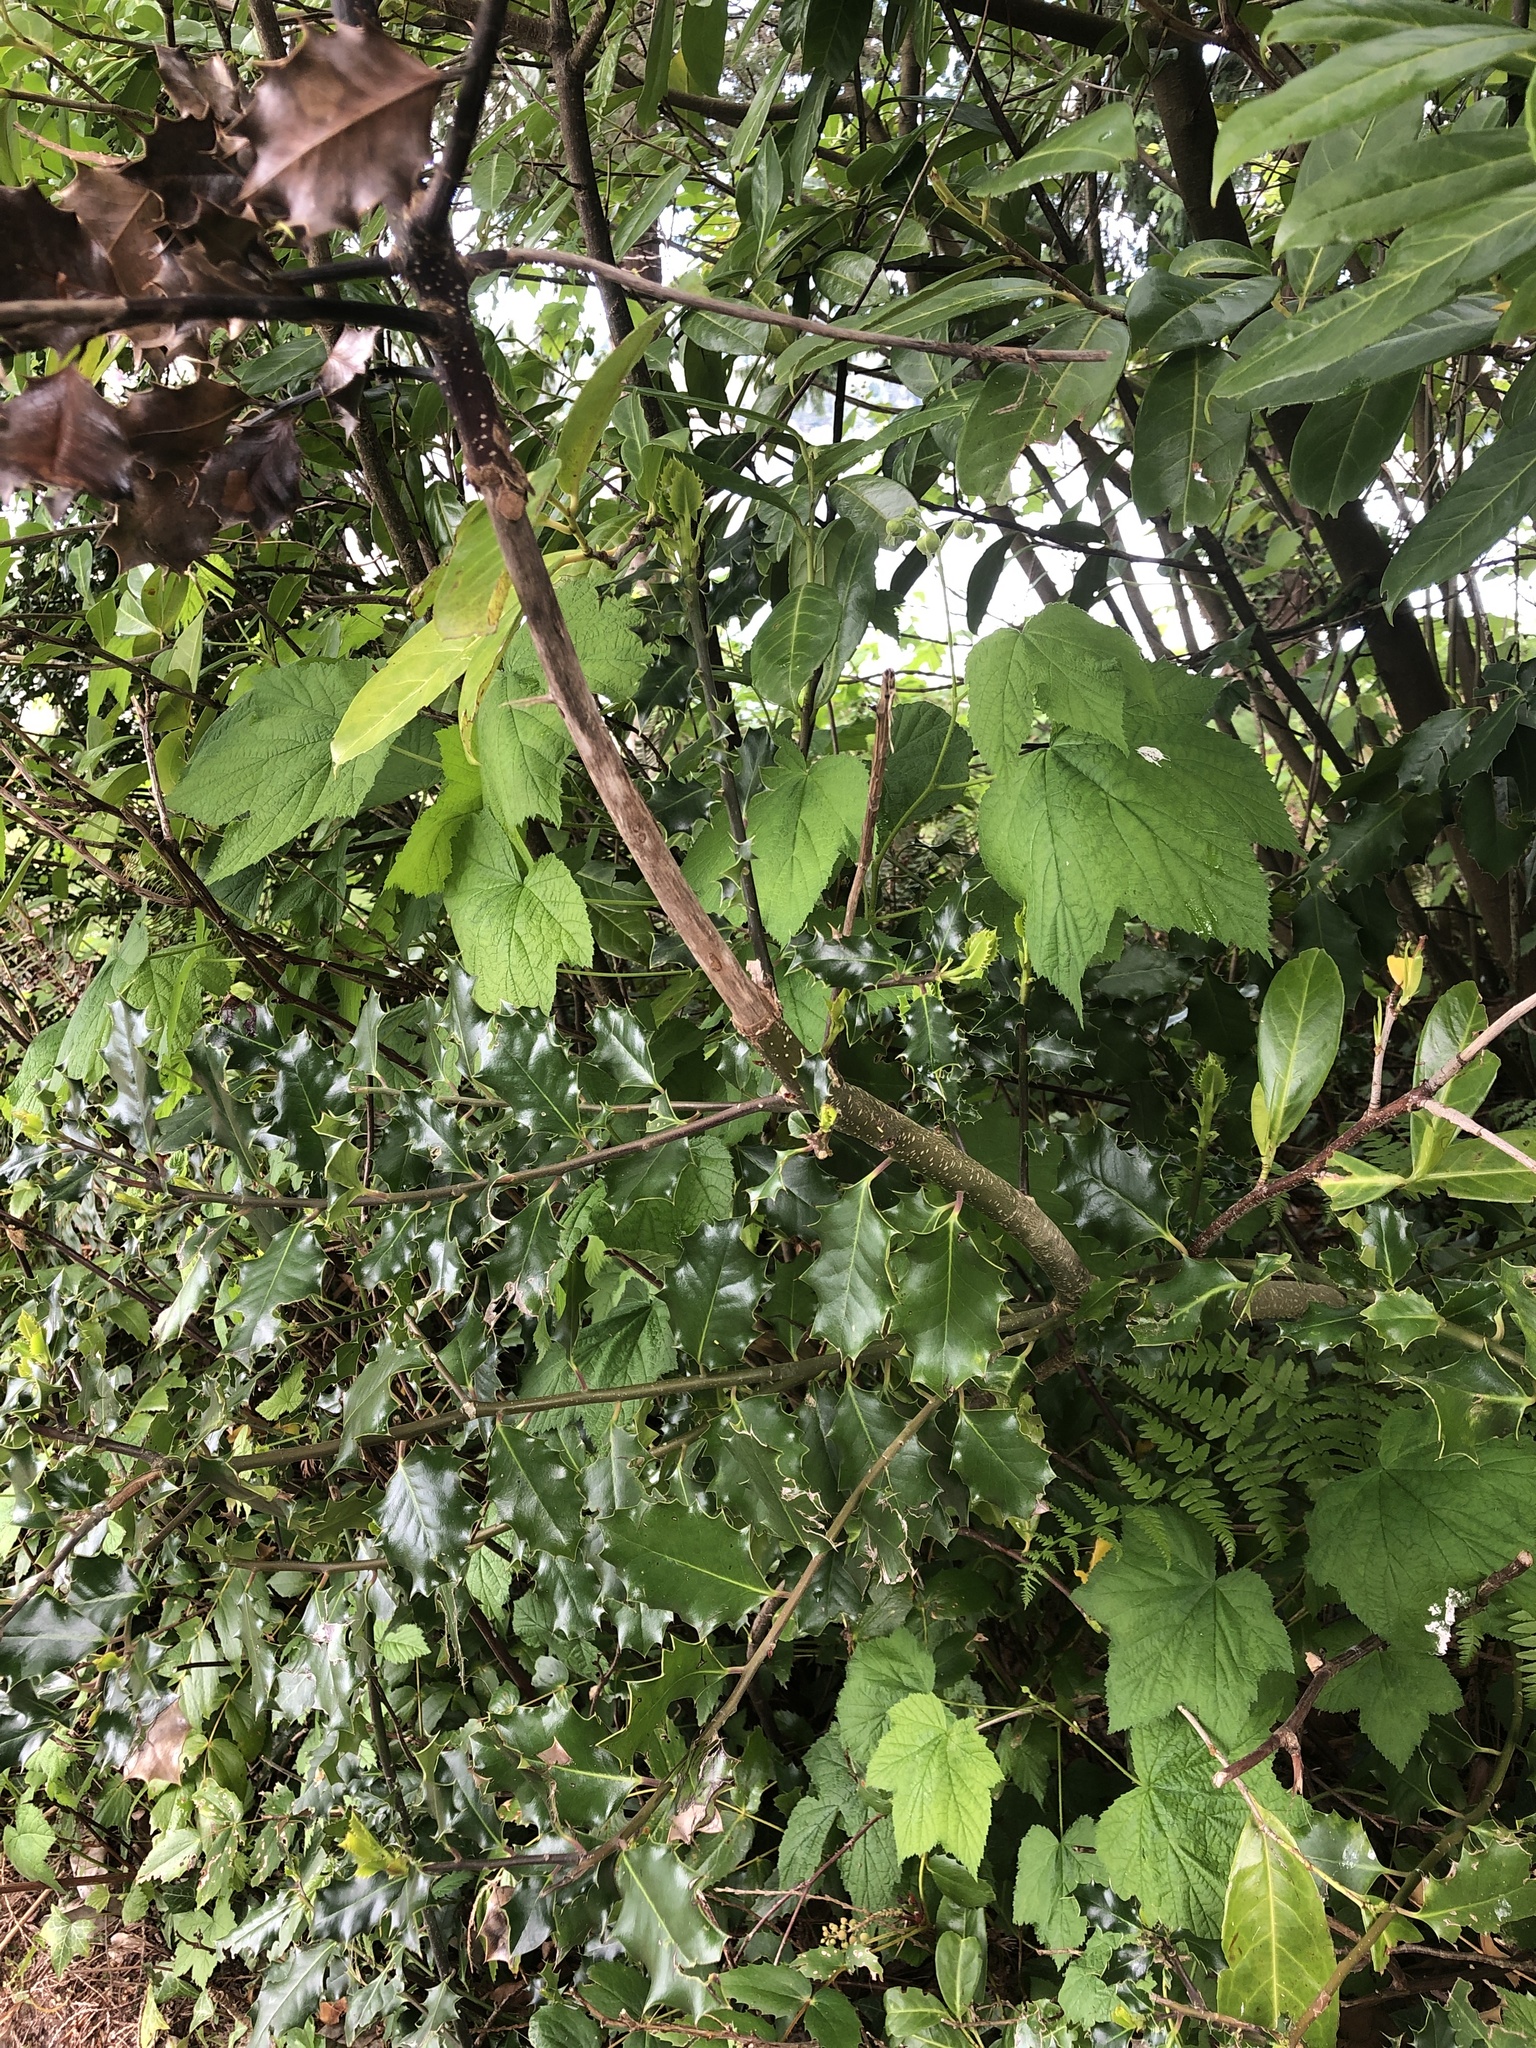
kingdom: Plantae
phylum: Tracheophyta
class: Magnoliopsida
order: Aquifoliales
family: Aquifoliaceae
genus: Ilex
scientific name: Ilex aquifolium
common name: English holly
